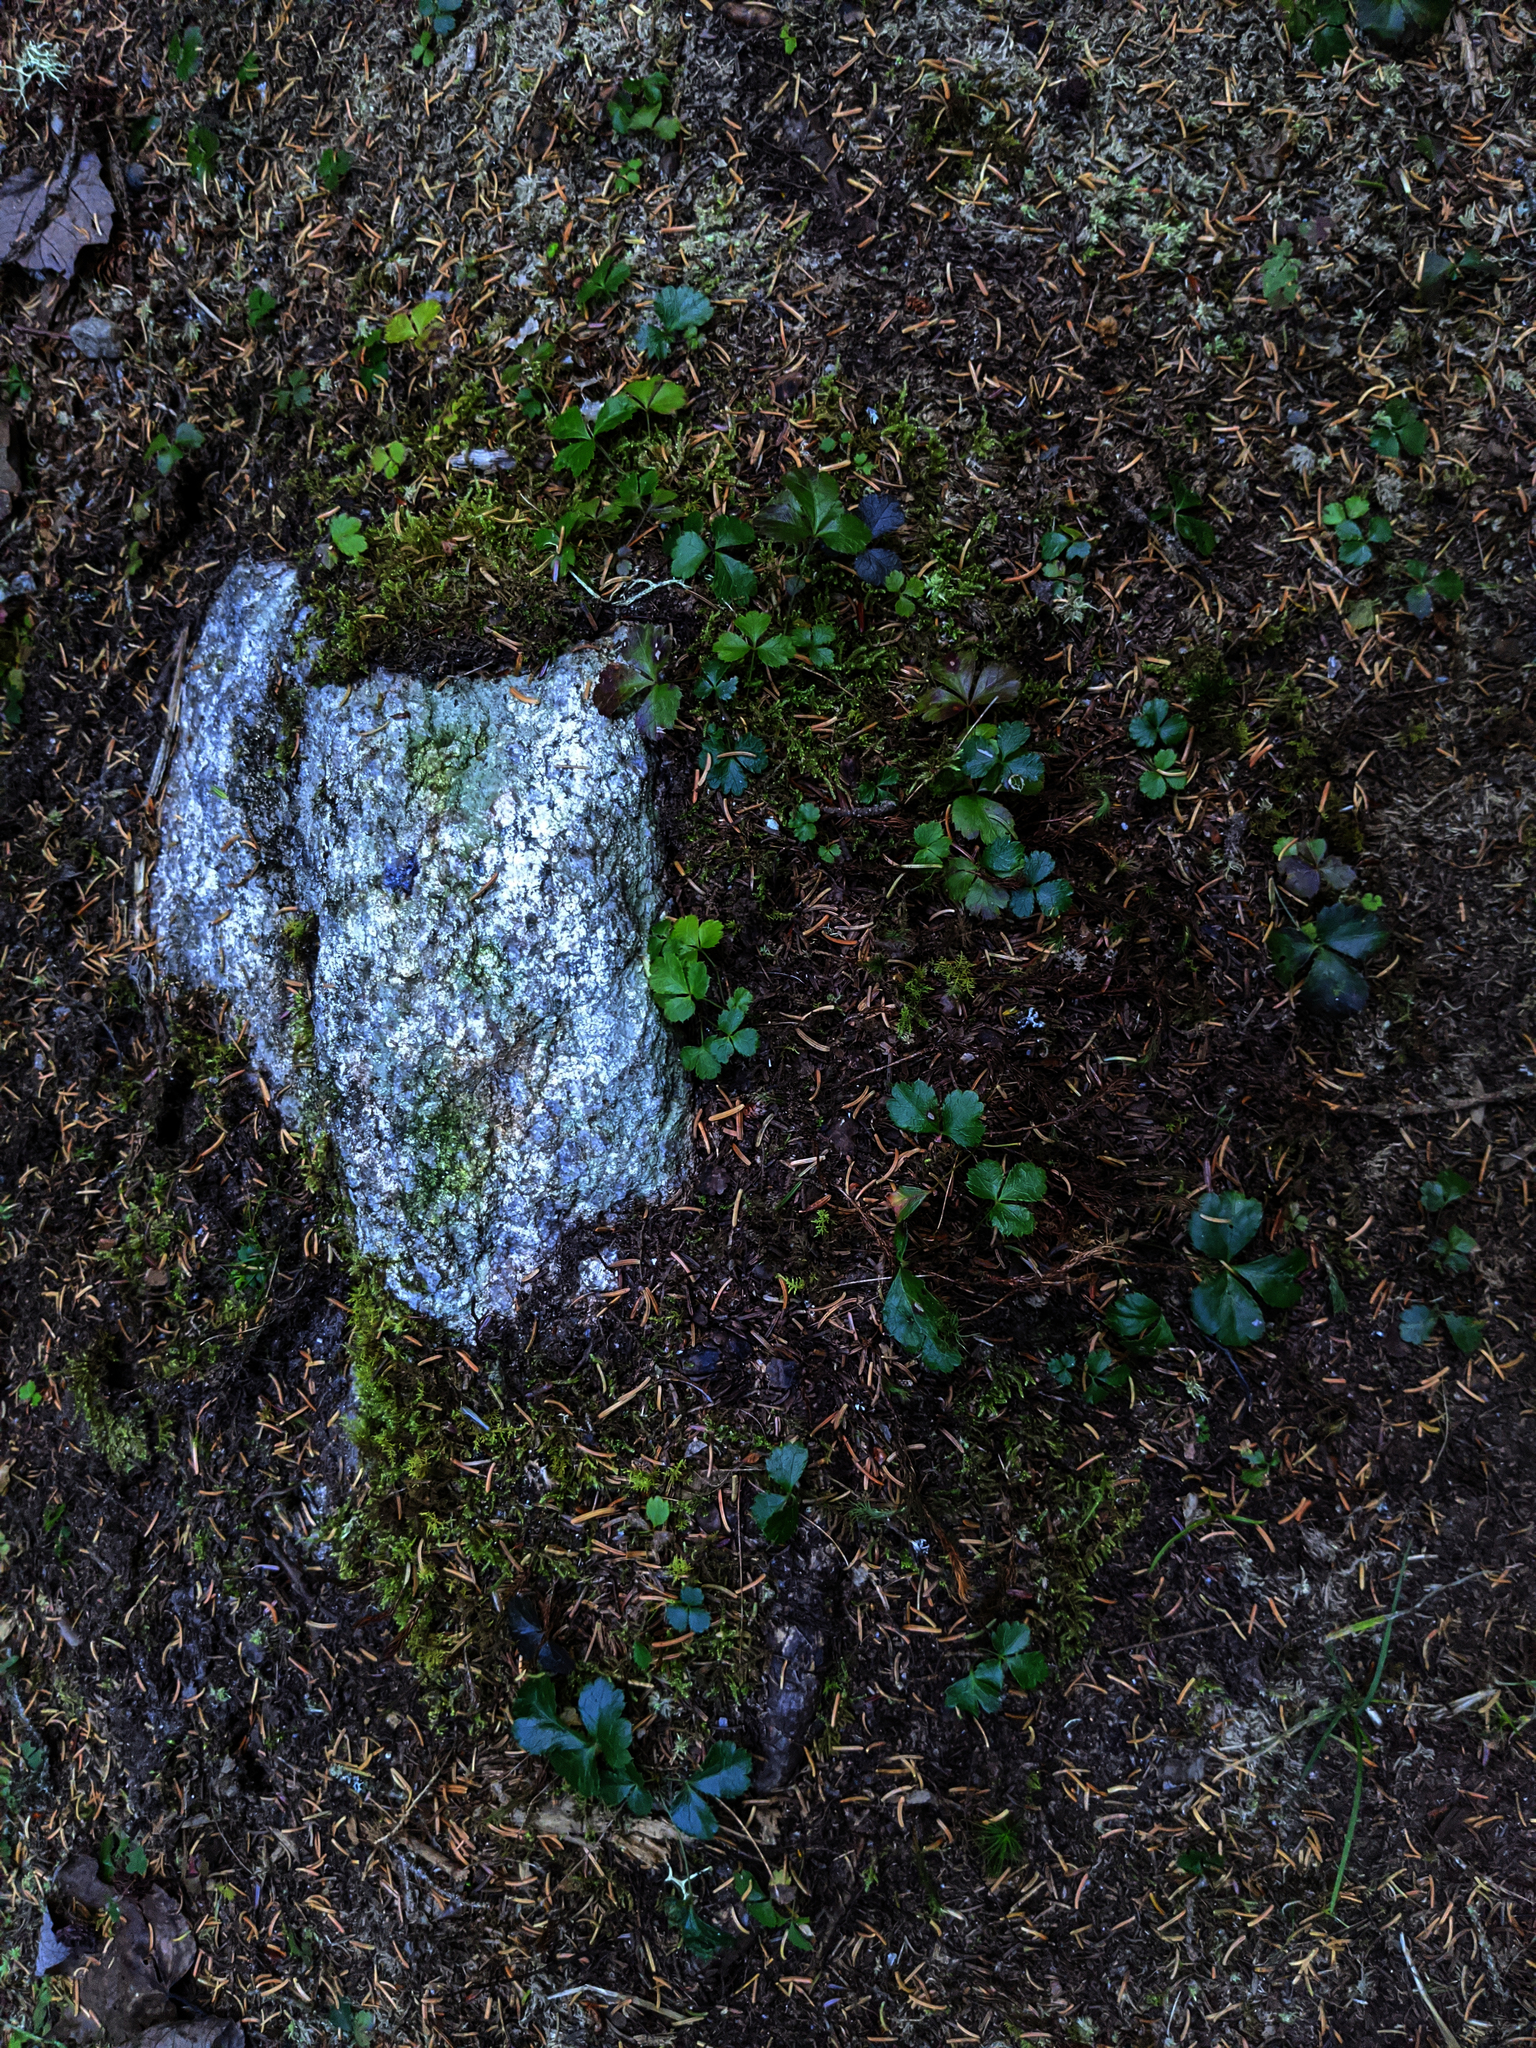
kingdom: Plantae
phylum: Tracheophyta
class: Magnoliopsida
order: Ranunculales
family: Ranunculaceae
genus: Coptis
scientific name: Coptis trifolia
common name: Canker-root
